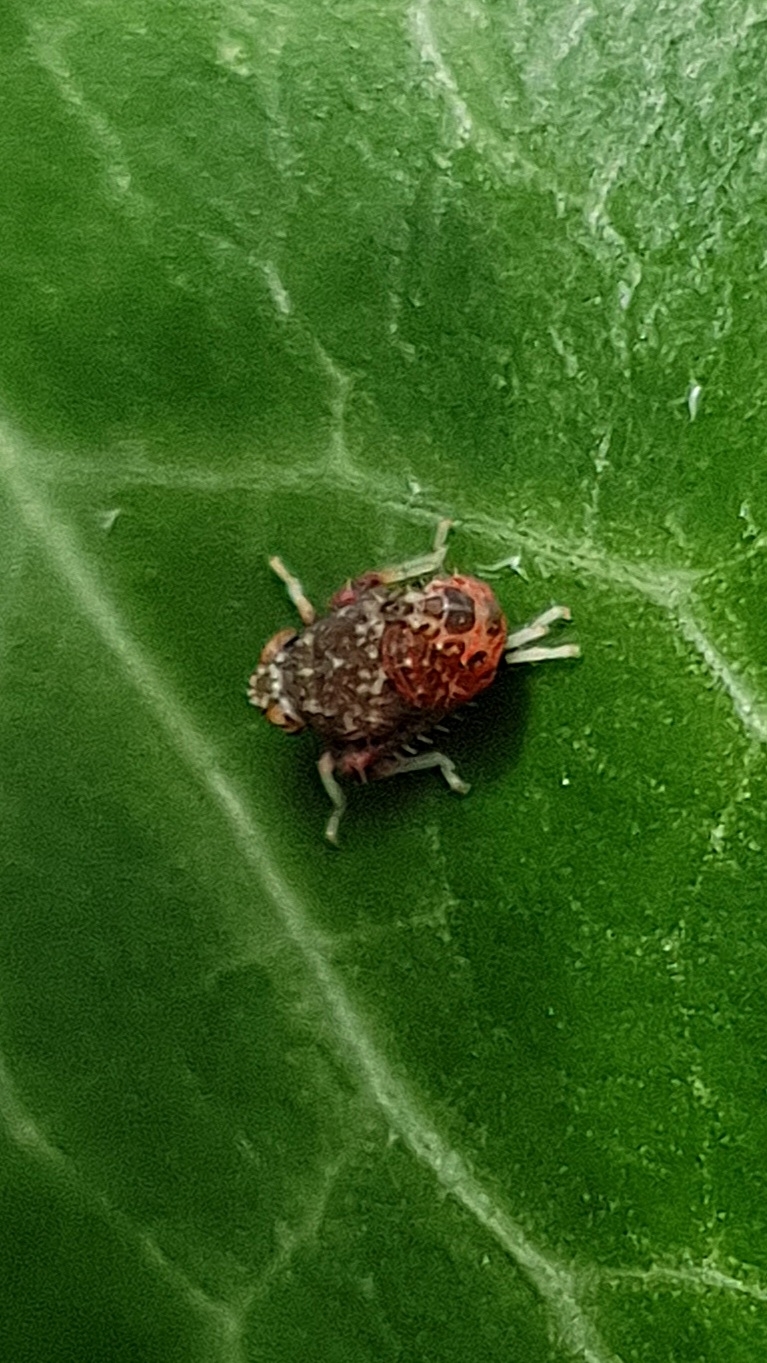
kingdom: Animalia
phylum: Arthropoda
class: Insecta
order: Hemiptera
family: Cicadellidae
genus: Orientus
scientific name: Orientus ishidae
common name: Japanese leafhopper
